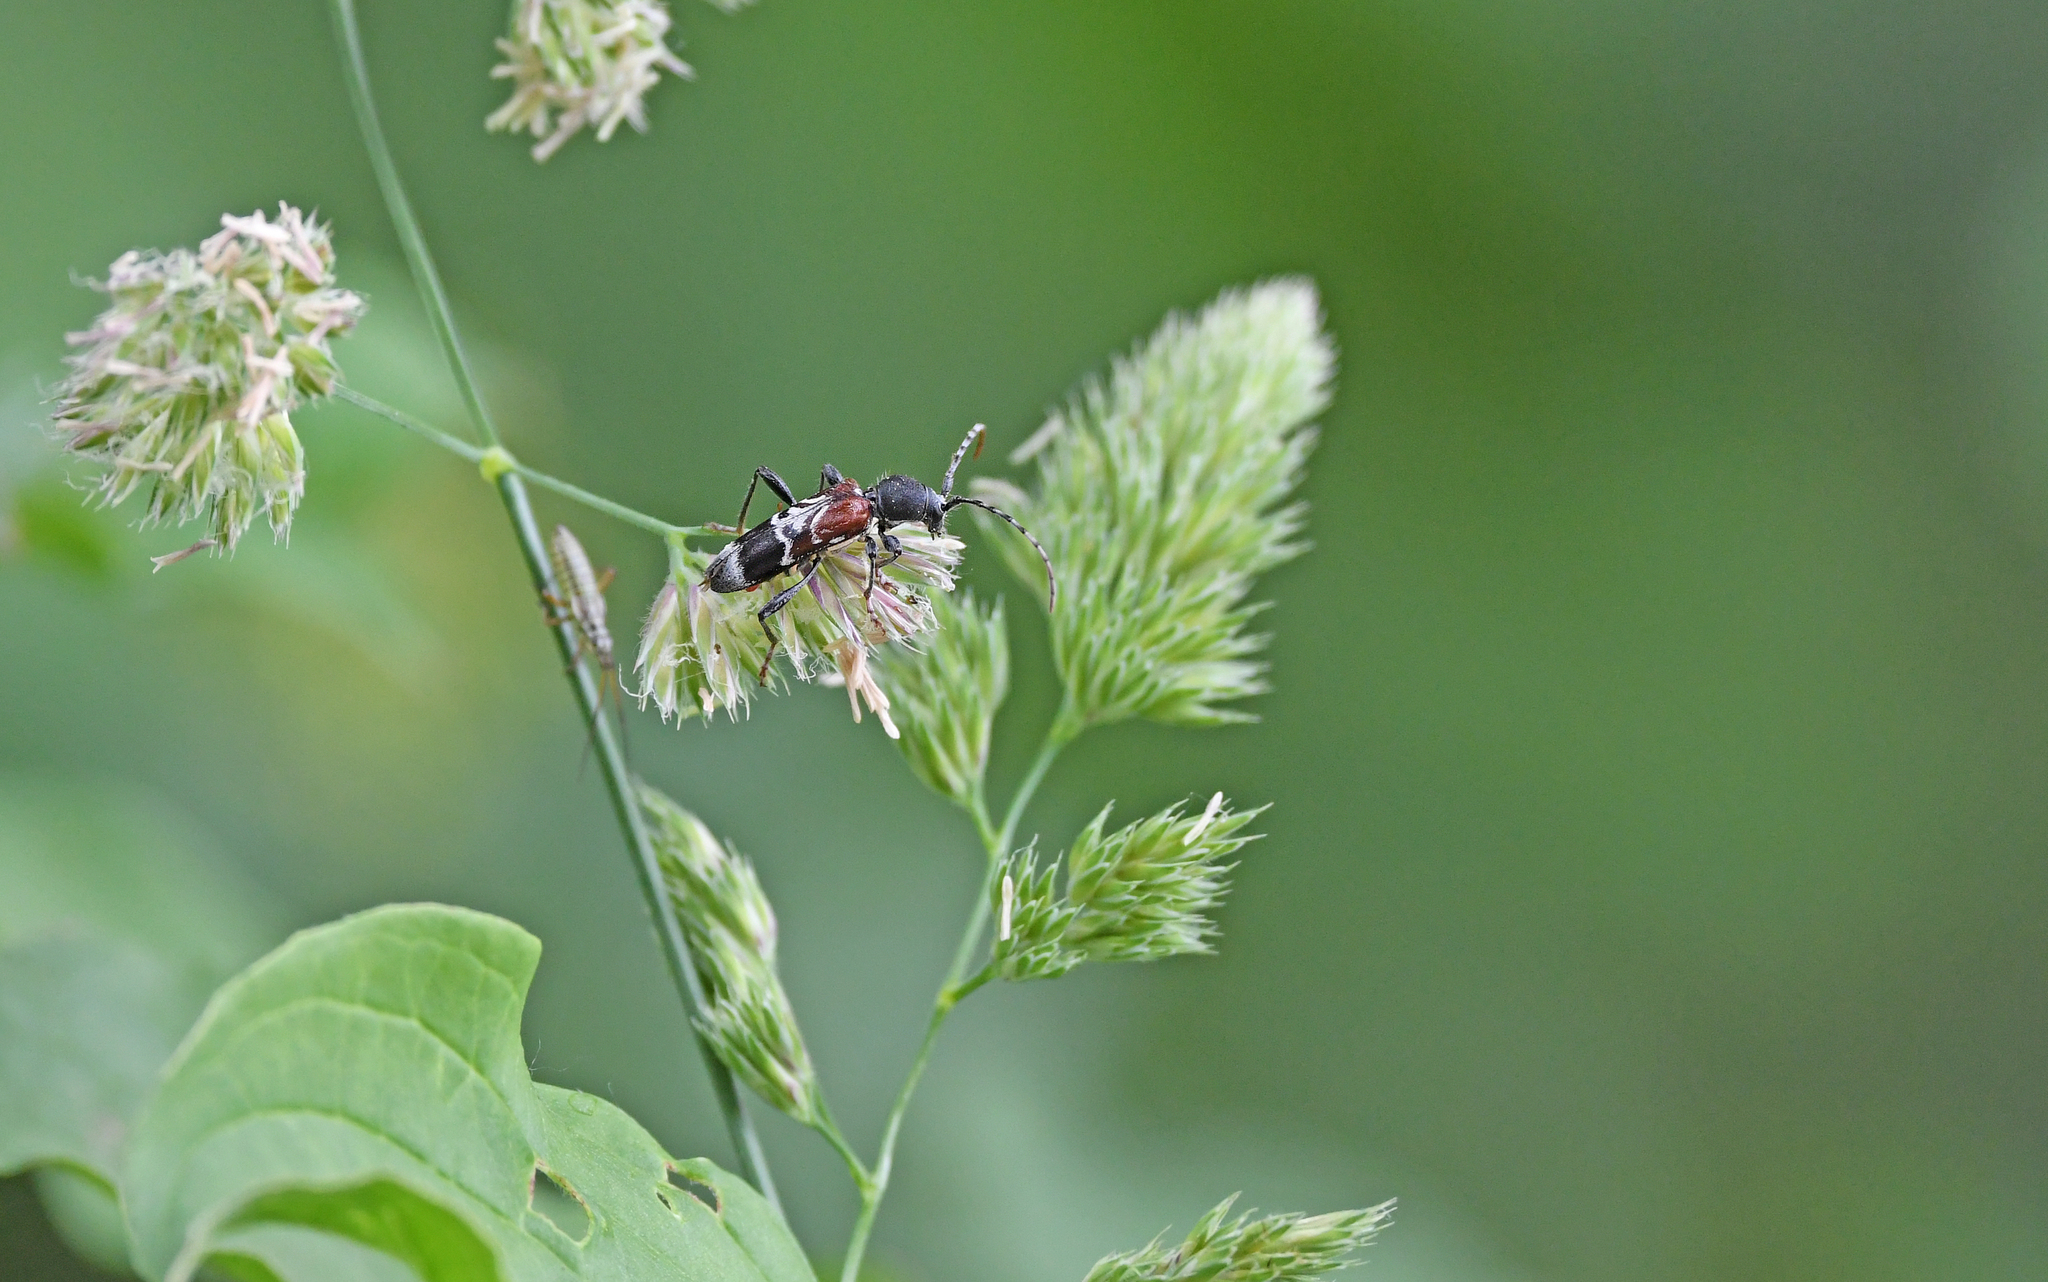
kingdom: Animalia
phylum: Arthropoda
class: Insecta
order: Coleoptera
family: Cerambycidae
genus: Anaglyptus
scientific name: Anaglyptus mysticus
